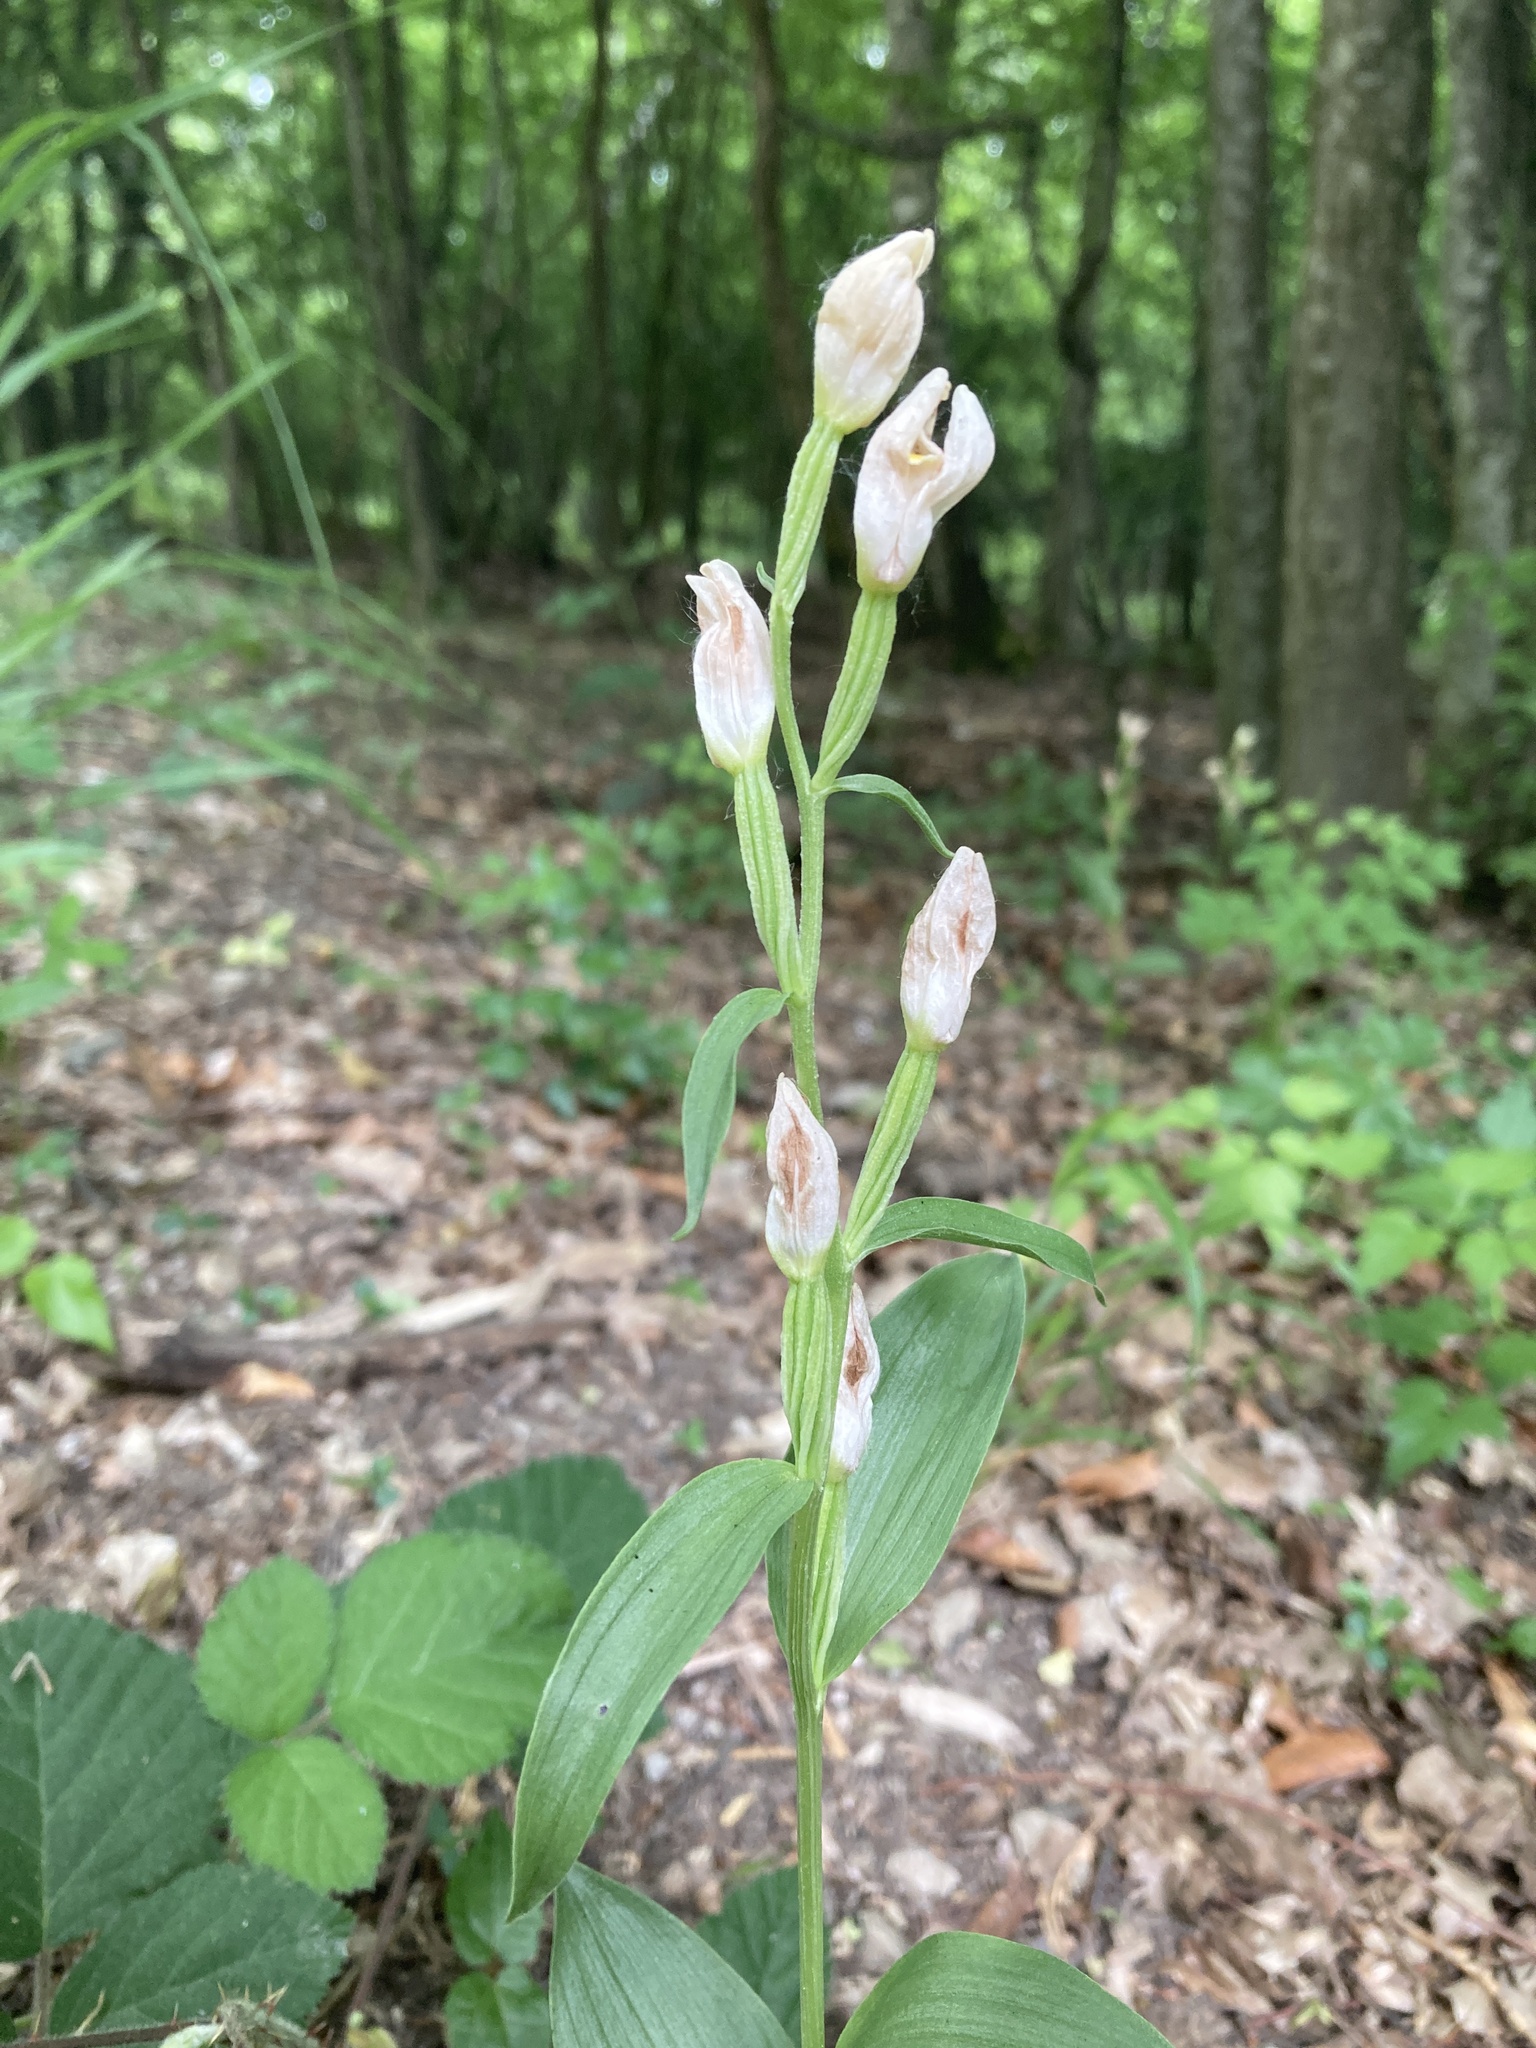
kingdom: Plantae
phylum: Tracheophyta
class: Liliopsida
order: Asparagales
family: Orchidaceae
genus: Cephalanthera
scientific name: Cephalanthera damasonium
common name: White helleborine
